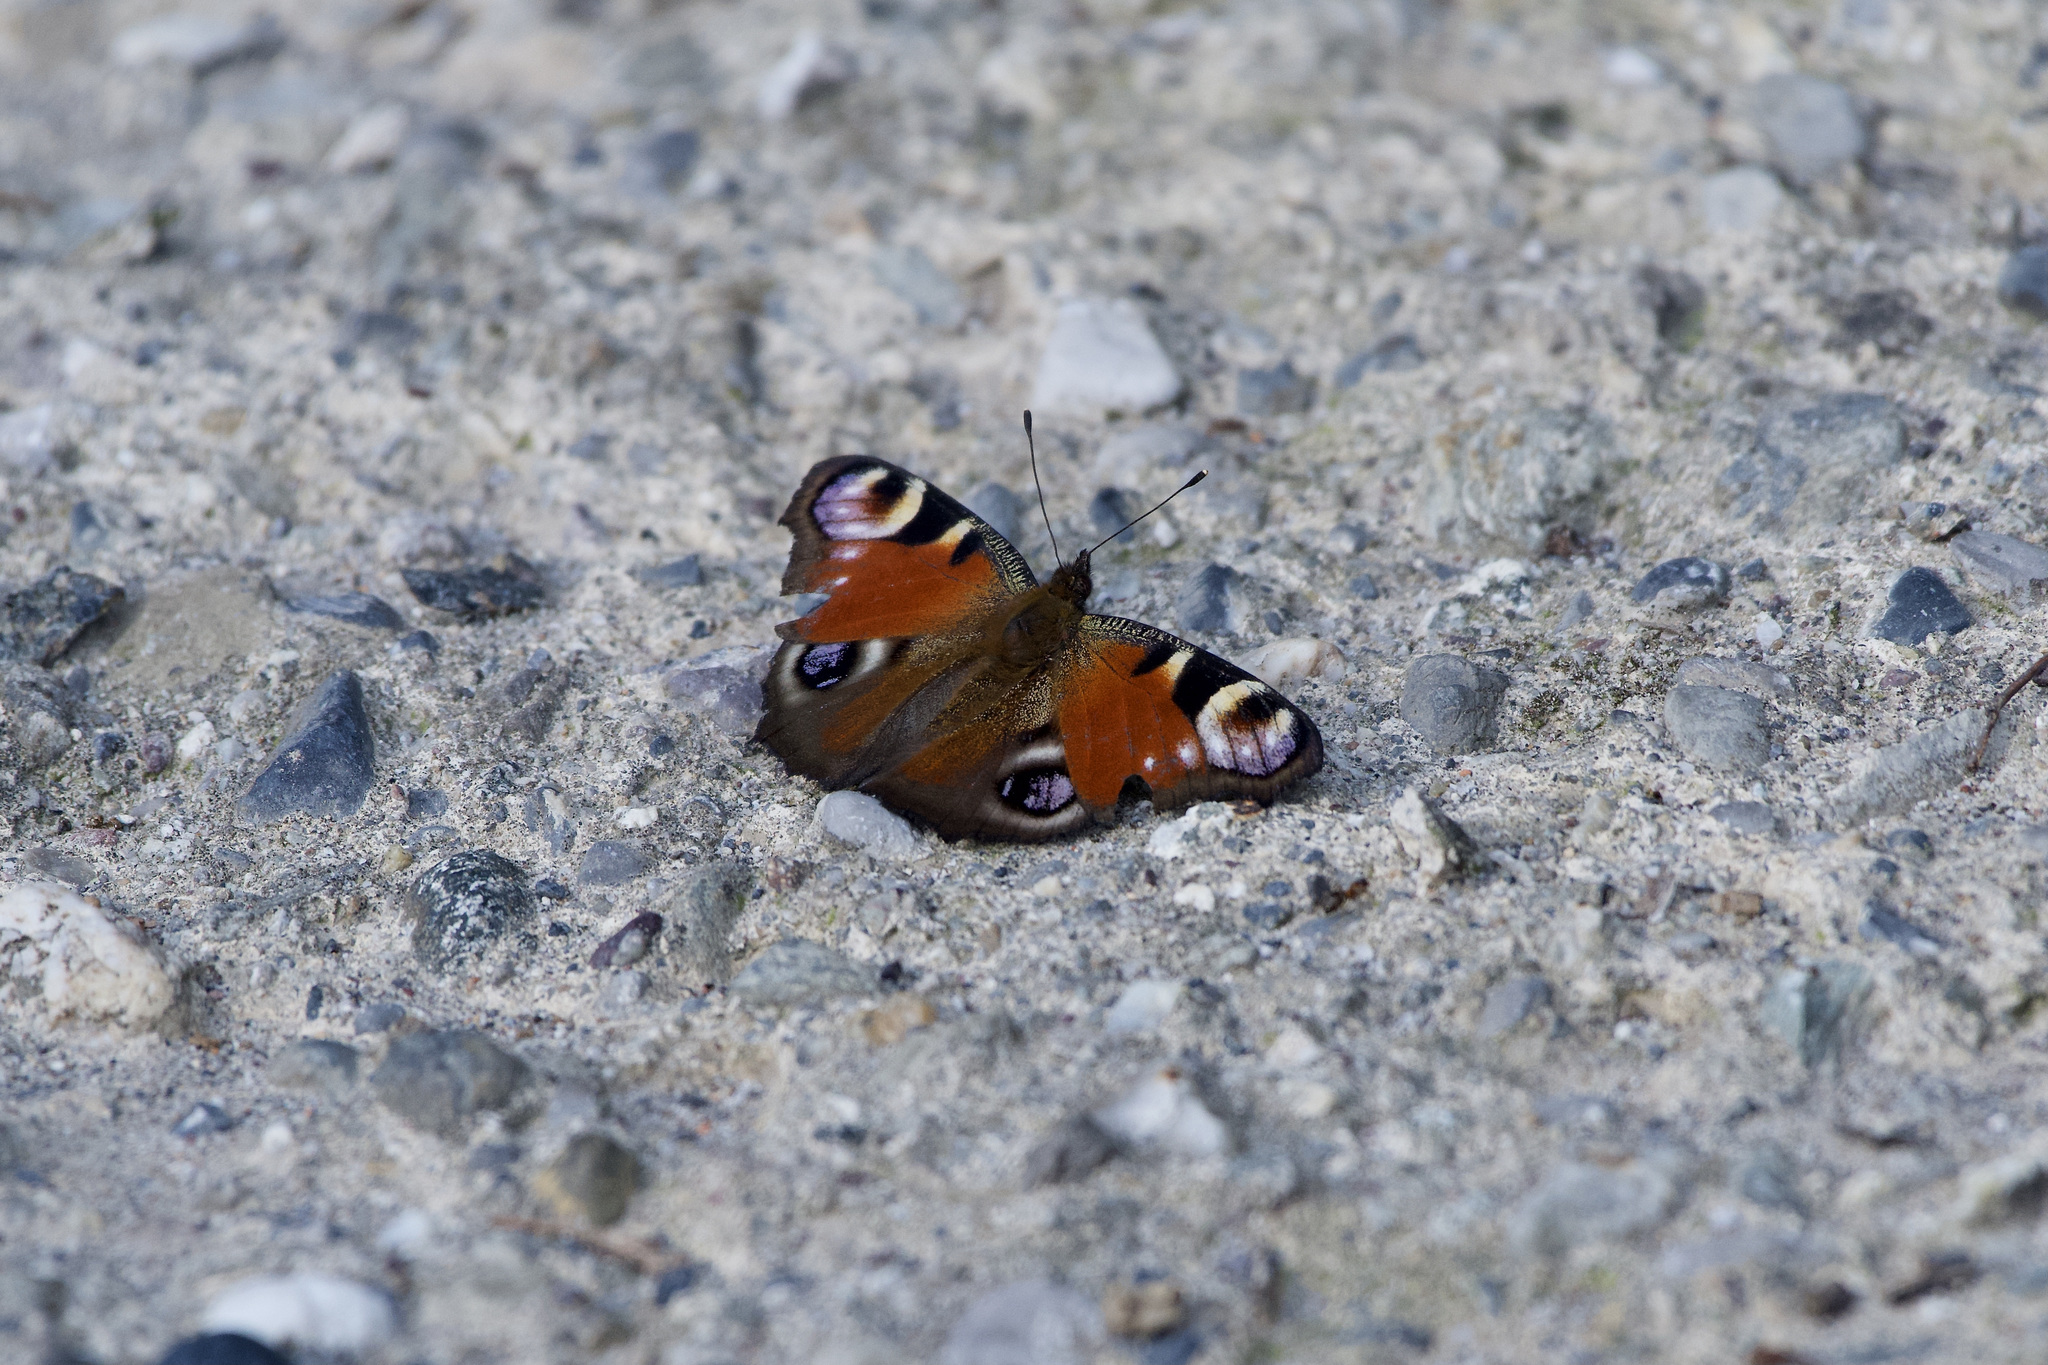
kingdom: Animalia
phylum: Arthropoda
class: Insecta
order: Lepidoptera
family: Nymphalidae
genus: Aglais
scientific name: Aglais io
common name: Peacock
